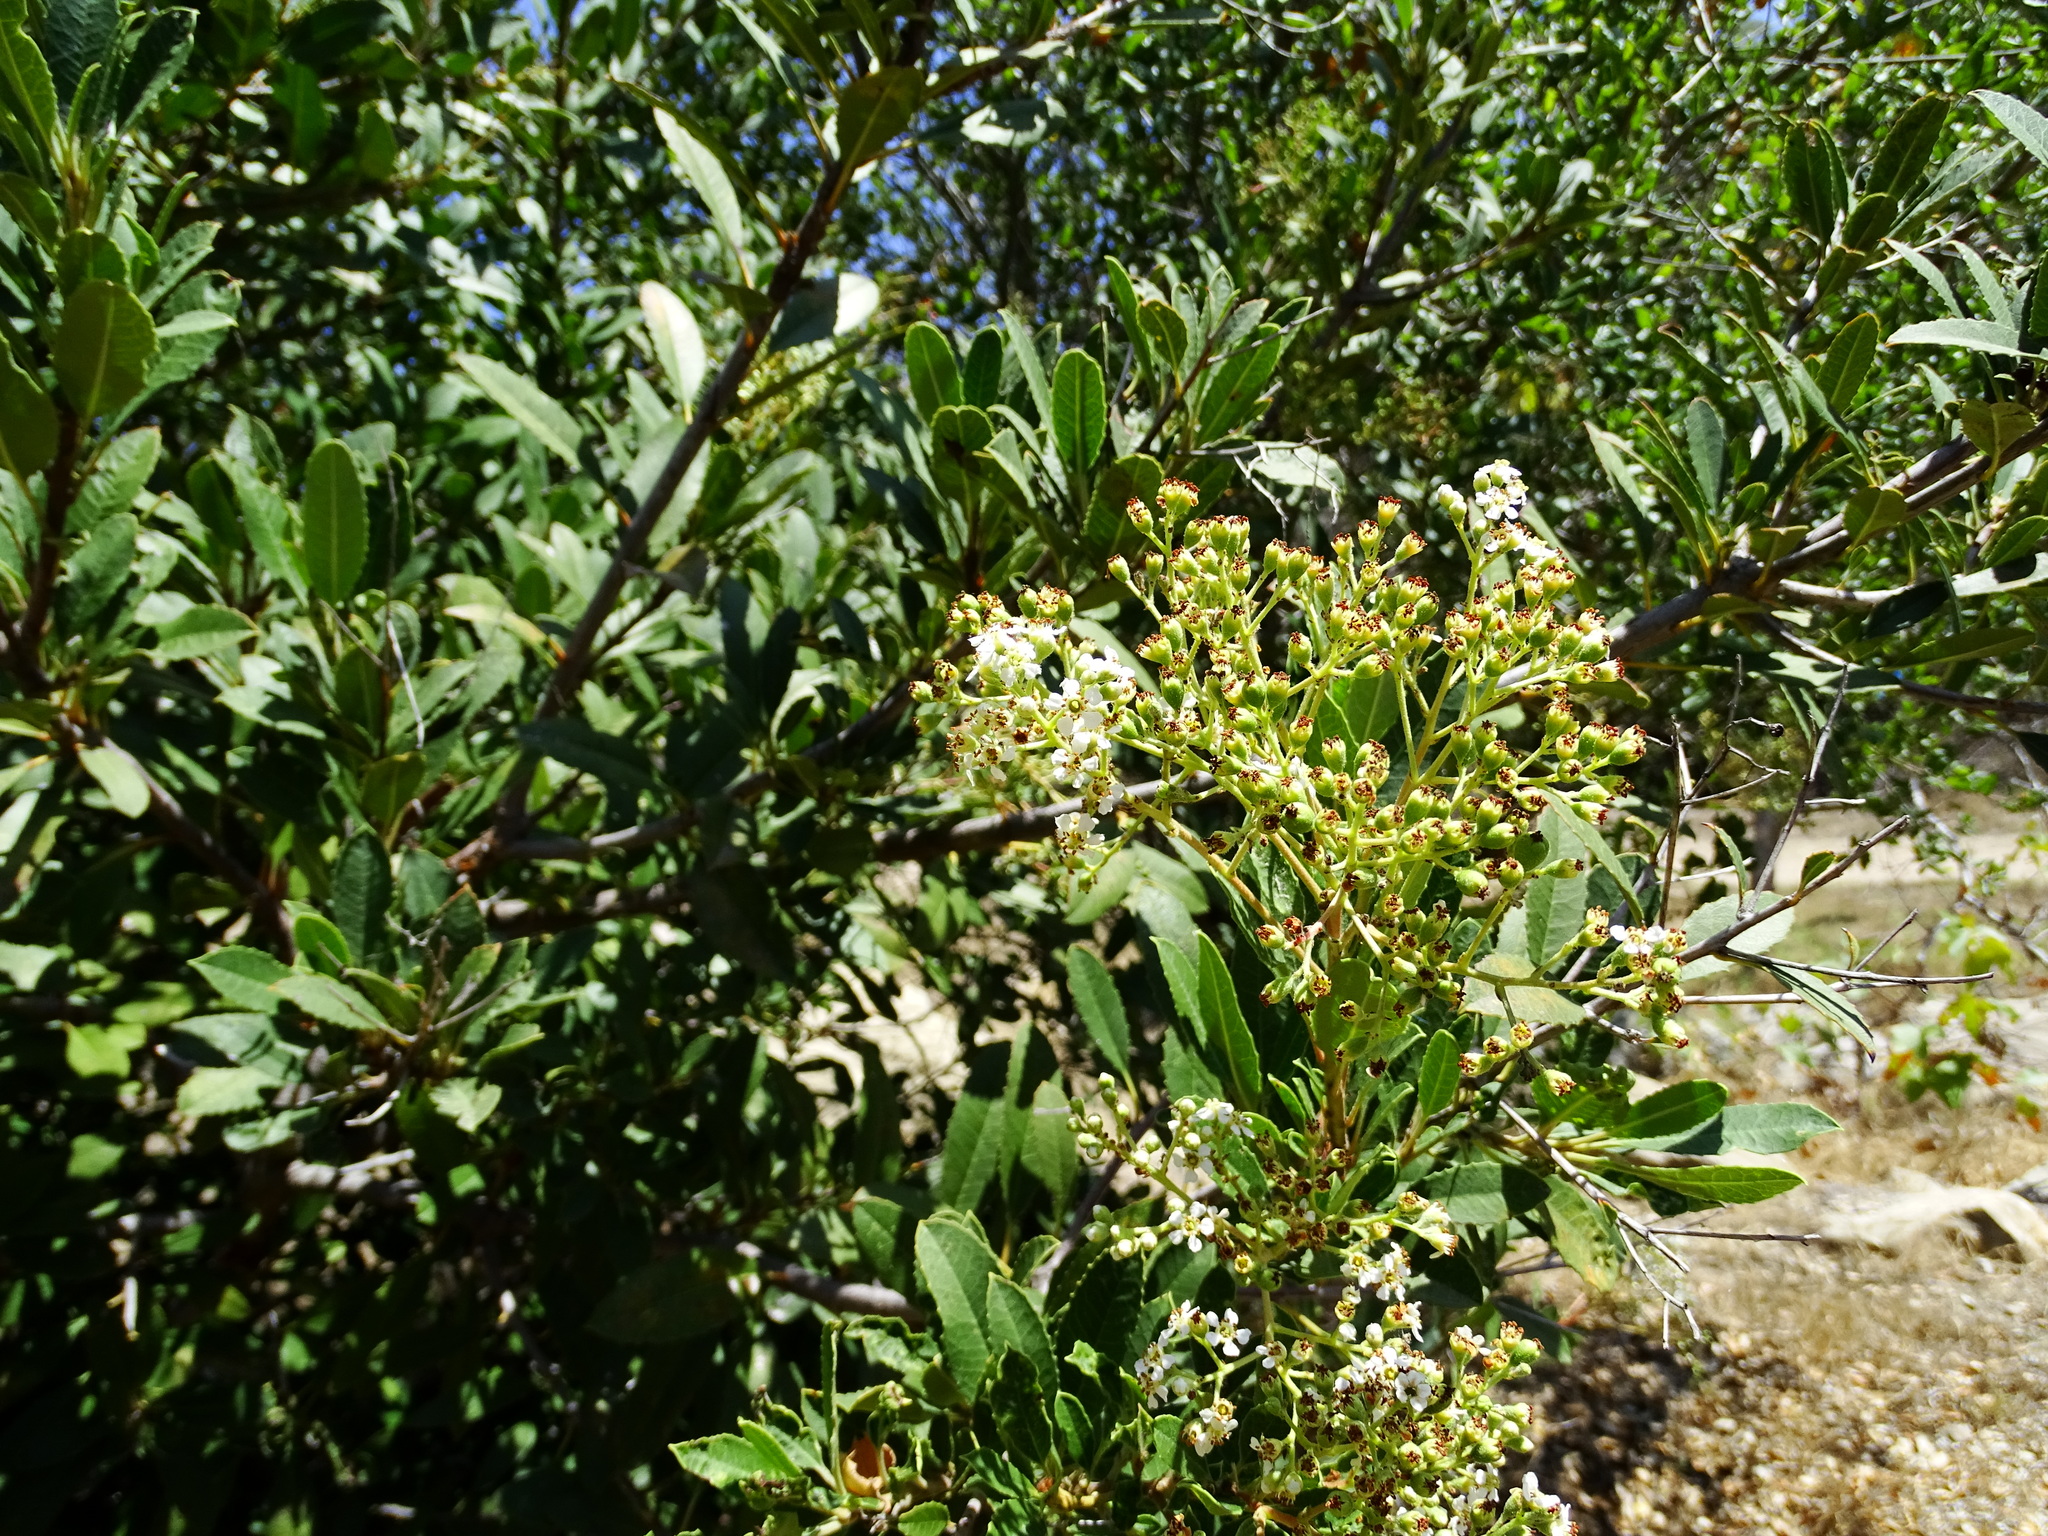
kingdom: Plantae
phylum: Tracheophyta
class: Magnoliopsida
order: Rosales
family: Rosaceae
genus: Heteromeles
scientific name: Heteromeles arbutifolia
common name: California-holly
